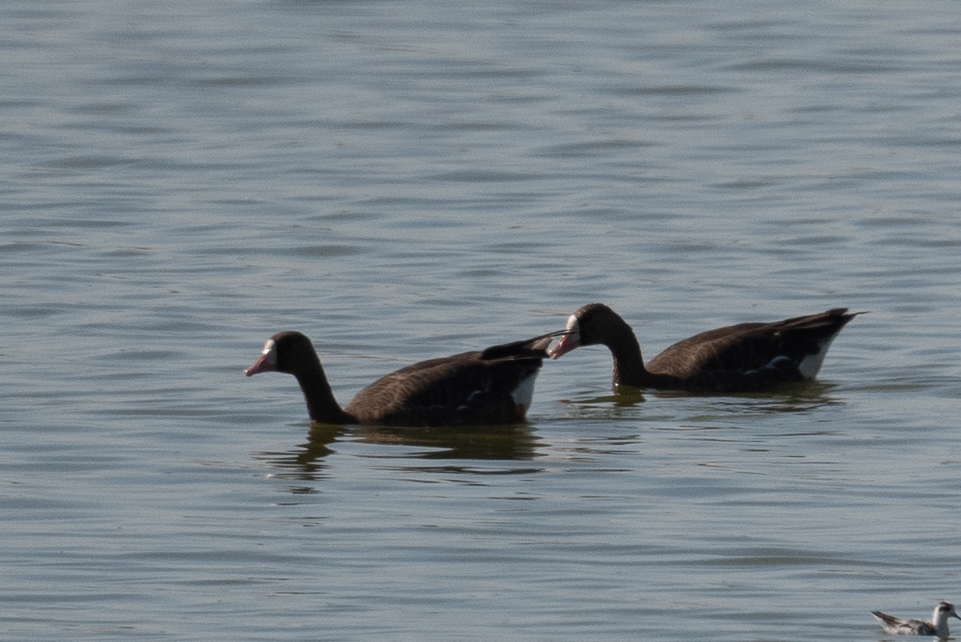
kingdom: Animalia
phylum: Chordata
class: Aves
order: Anseriformes
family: Anatidae
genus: Anser
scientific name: Anser albifrons
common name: Greater white-fronted goose
